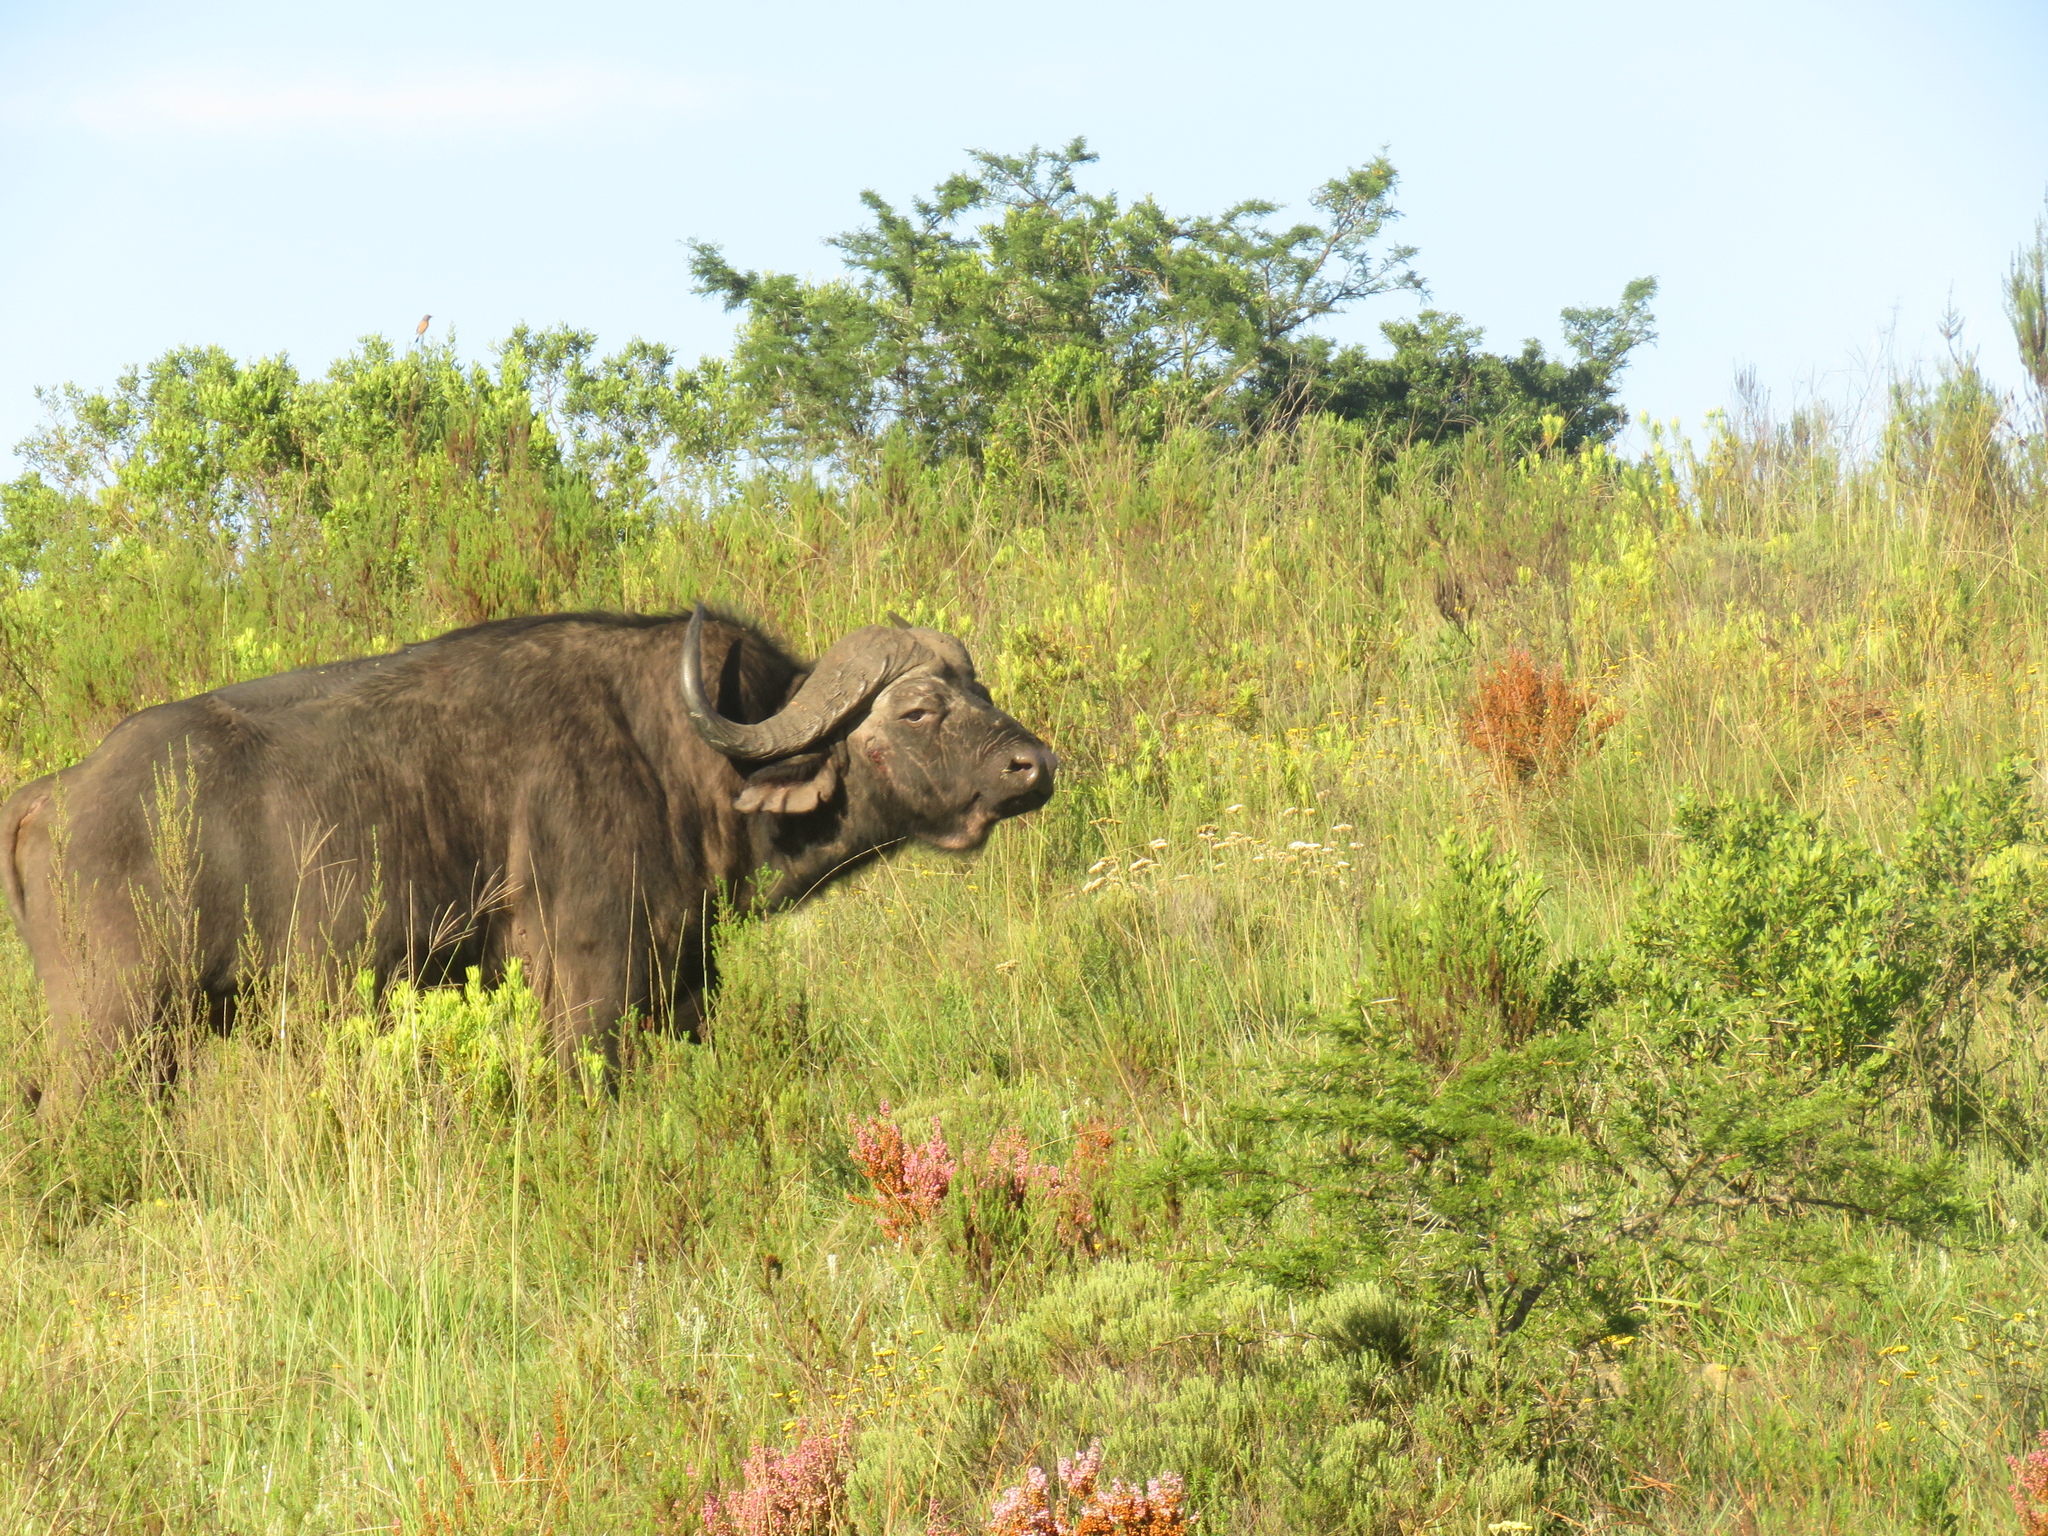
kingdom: Animalia
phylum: Chordata
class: Mammalia
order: Artiodactyla
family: Bovidae
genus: Syncerus
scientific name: Syncerus caffer
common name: African buffalo
